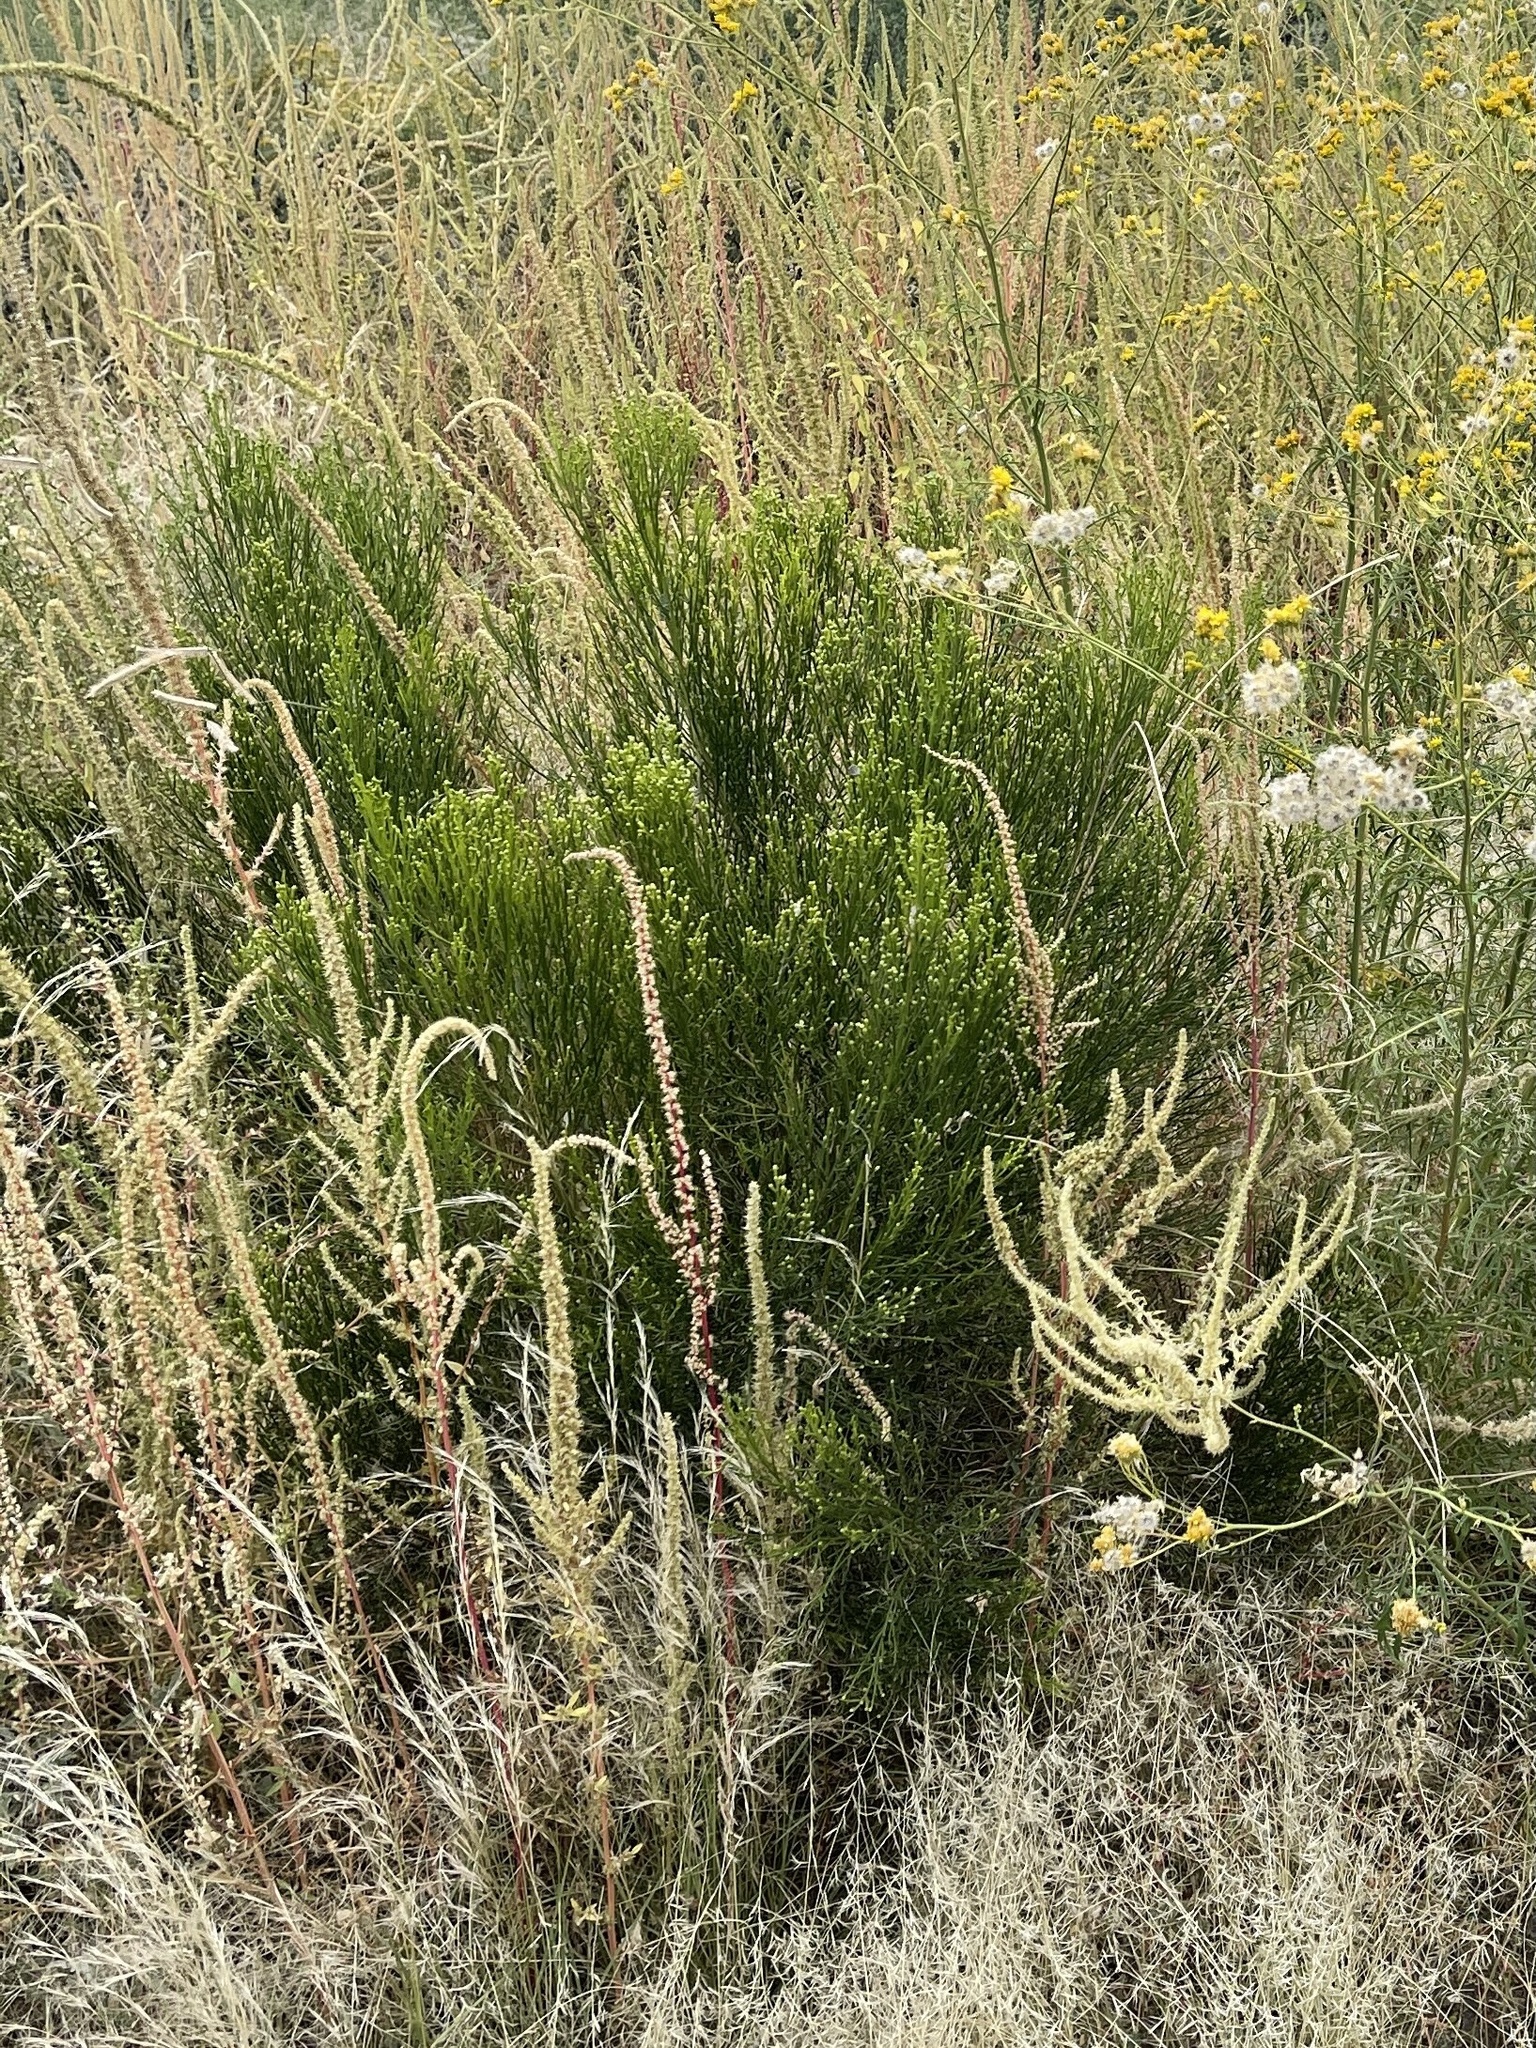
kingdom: Plantae
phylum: Tracheophyta
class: Magnoliopsida
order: Asterales
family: Asteraceae
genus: Baccharis
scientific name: Baccharis sarothroides
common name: Desert-broom
